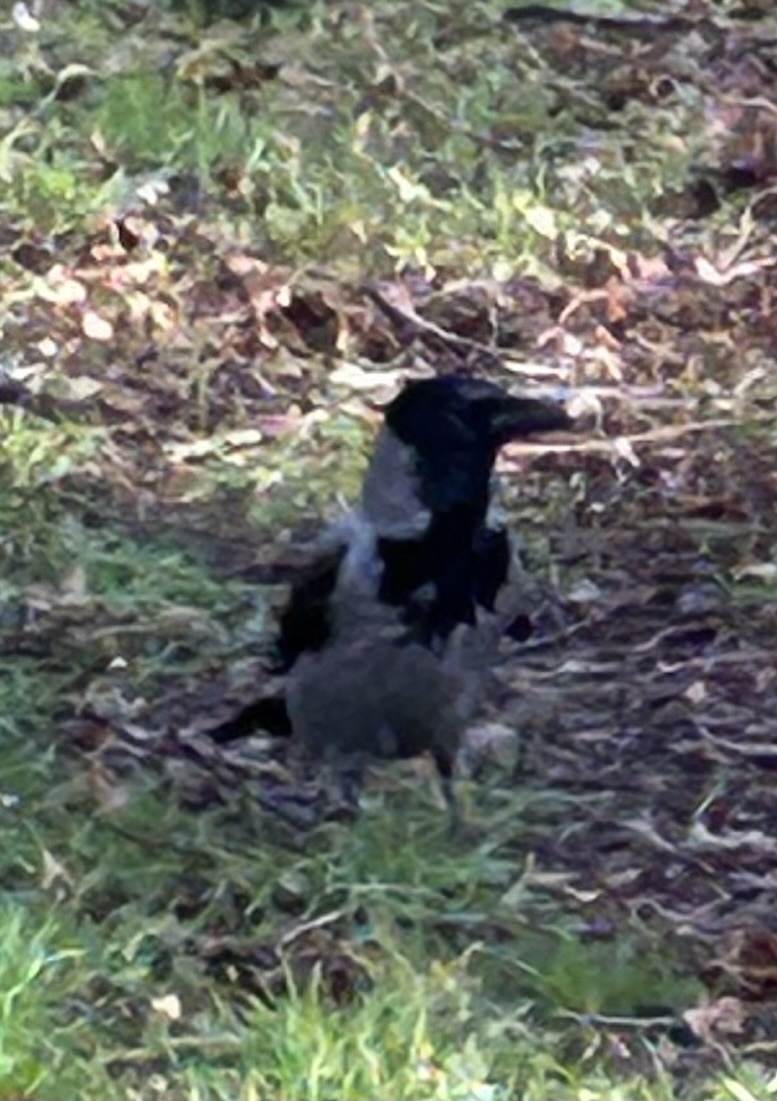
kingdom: Animalia
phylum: Chordata
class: Aves
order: Passeriformes
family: Corvidae
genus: Corvus
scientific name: Corvus cornix
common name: Hooded crow
